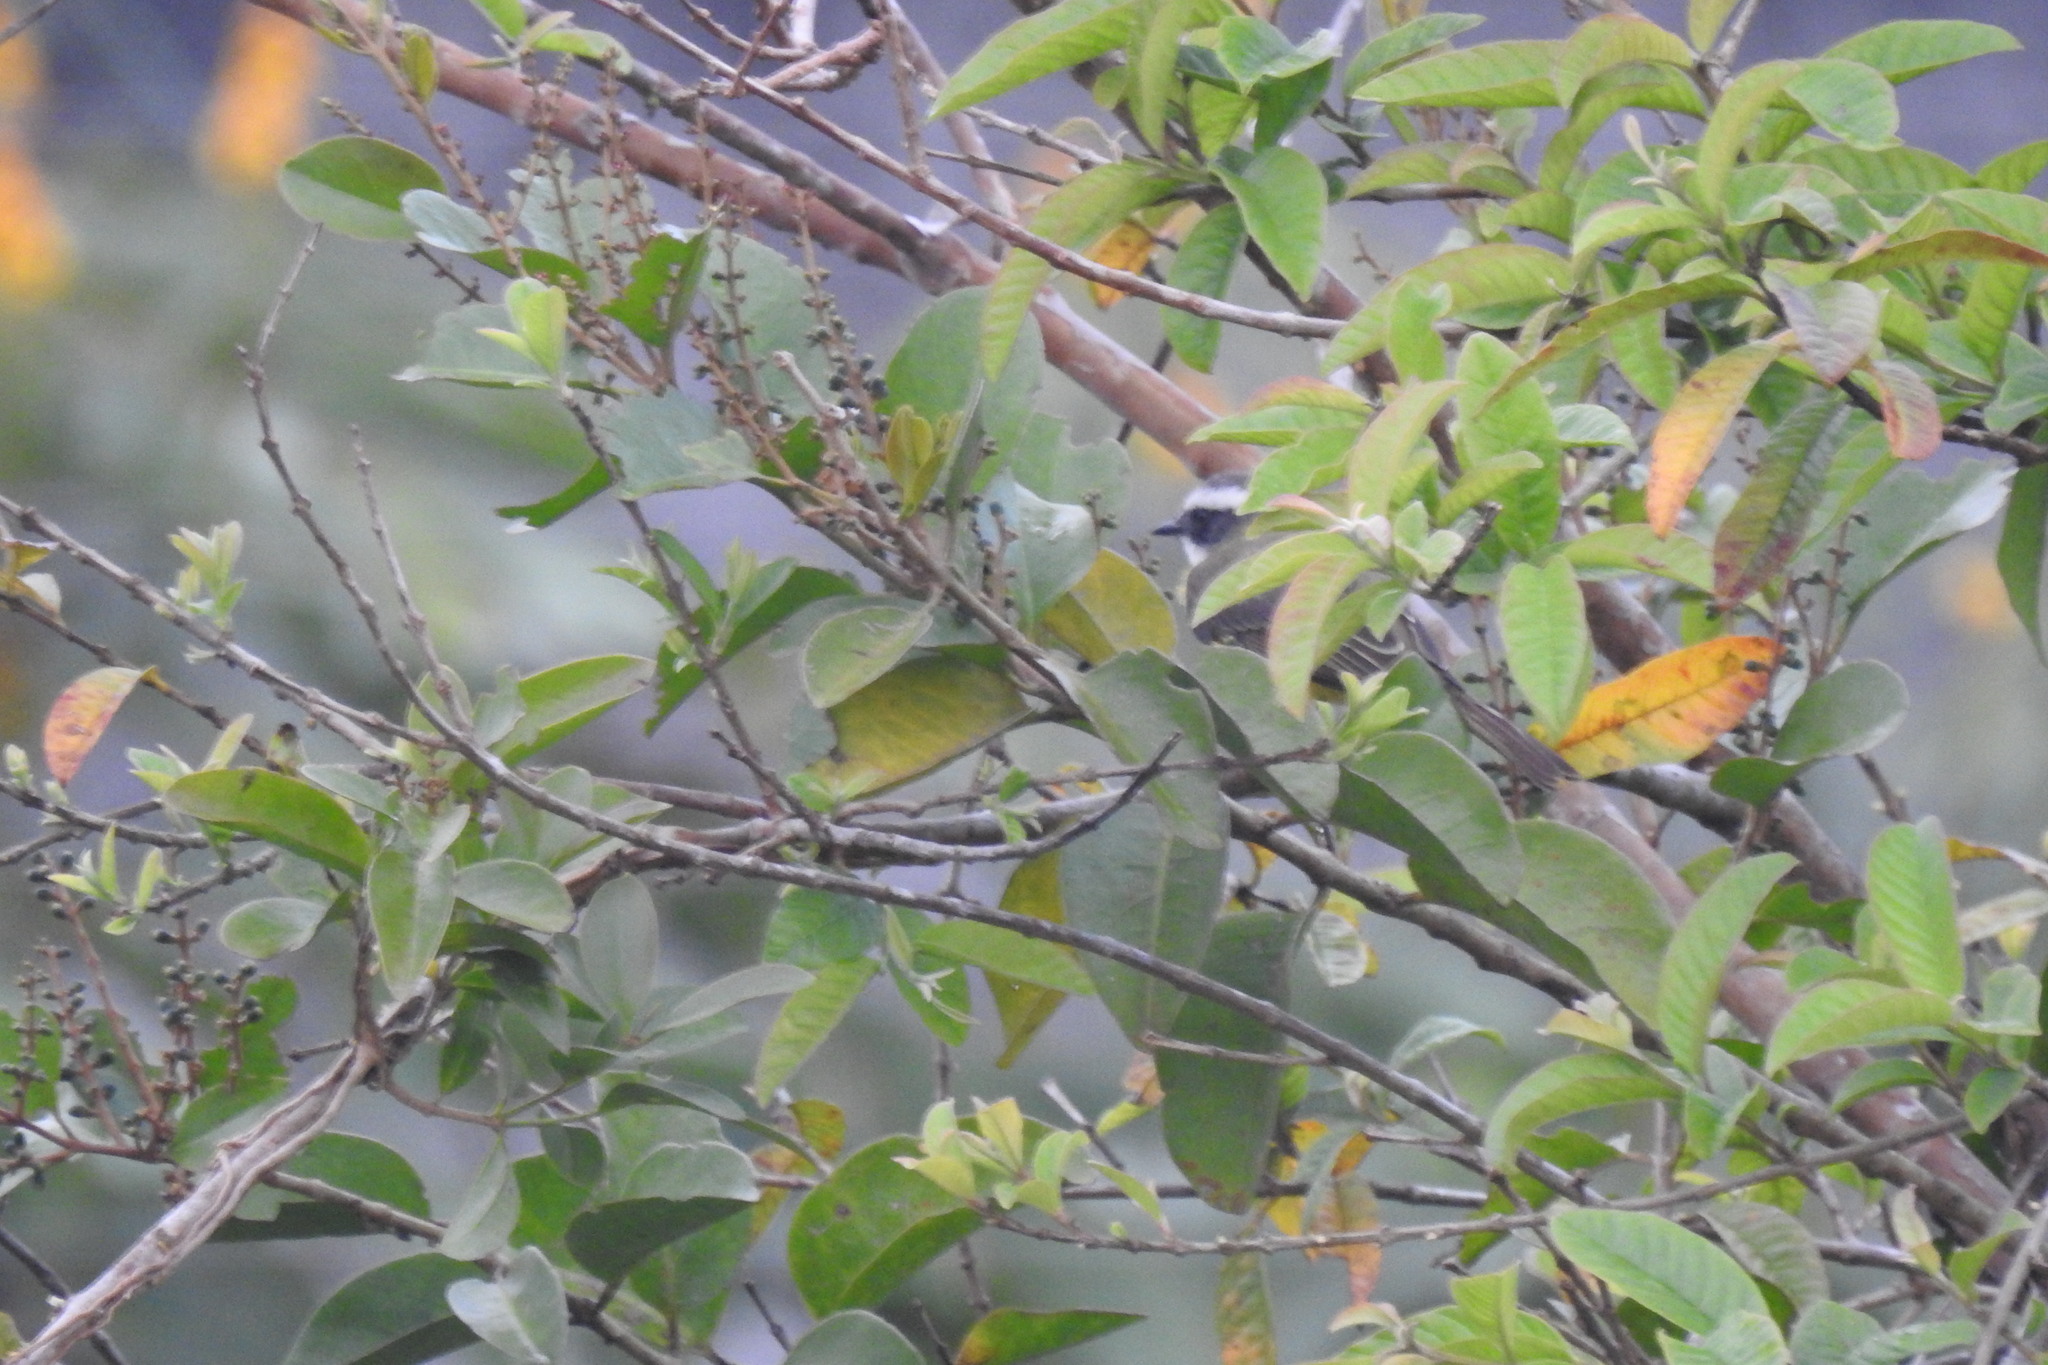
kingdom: Animalia
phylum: Chordata
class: Aves
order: Passeriformes
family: Tyrannidae
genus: Myiozetetes
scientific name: Myiozetetes similis
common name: Social flycatcher
